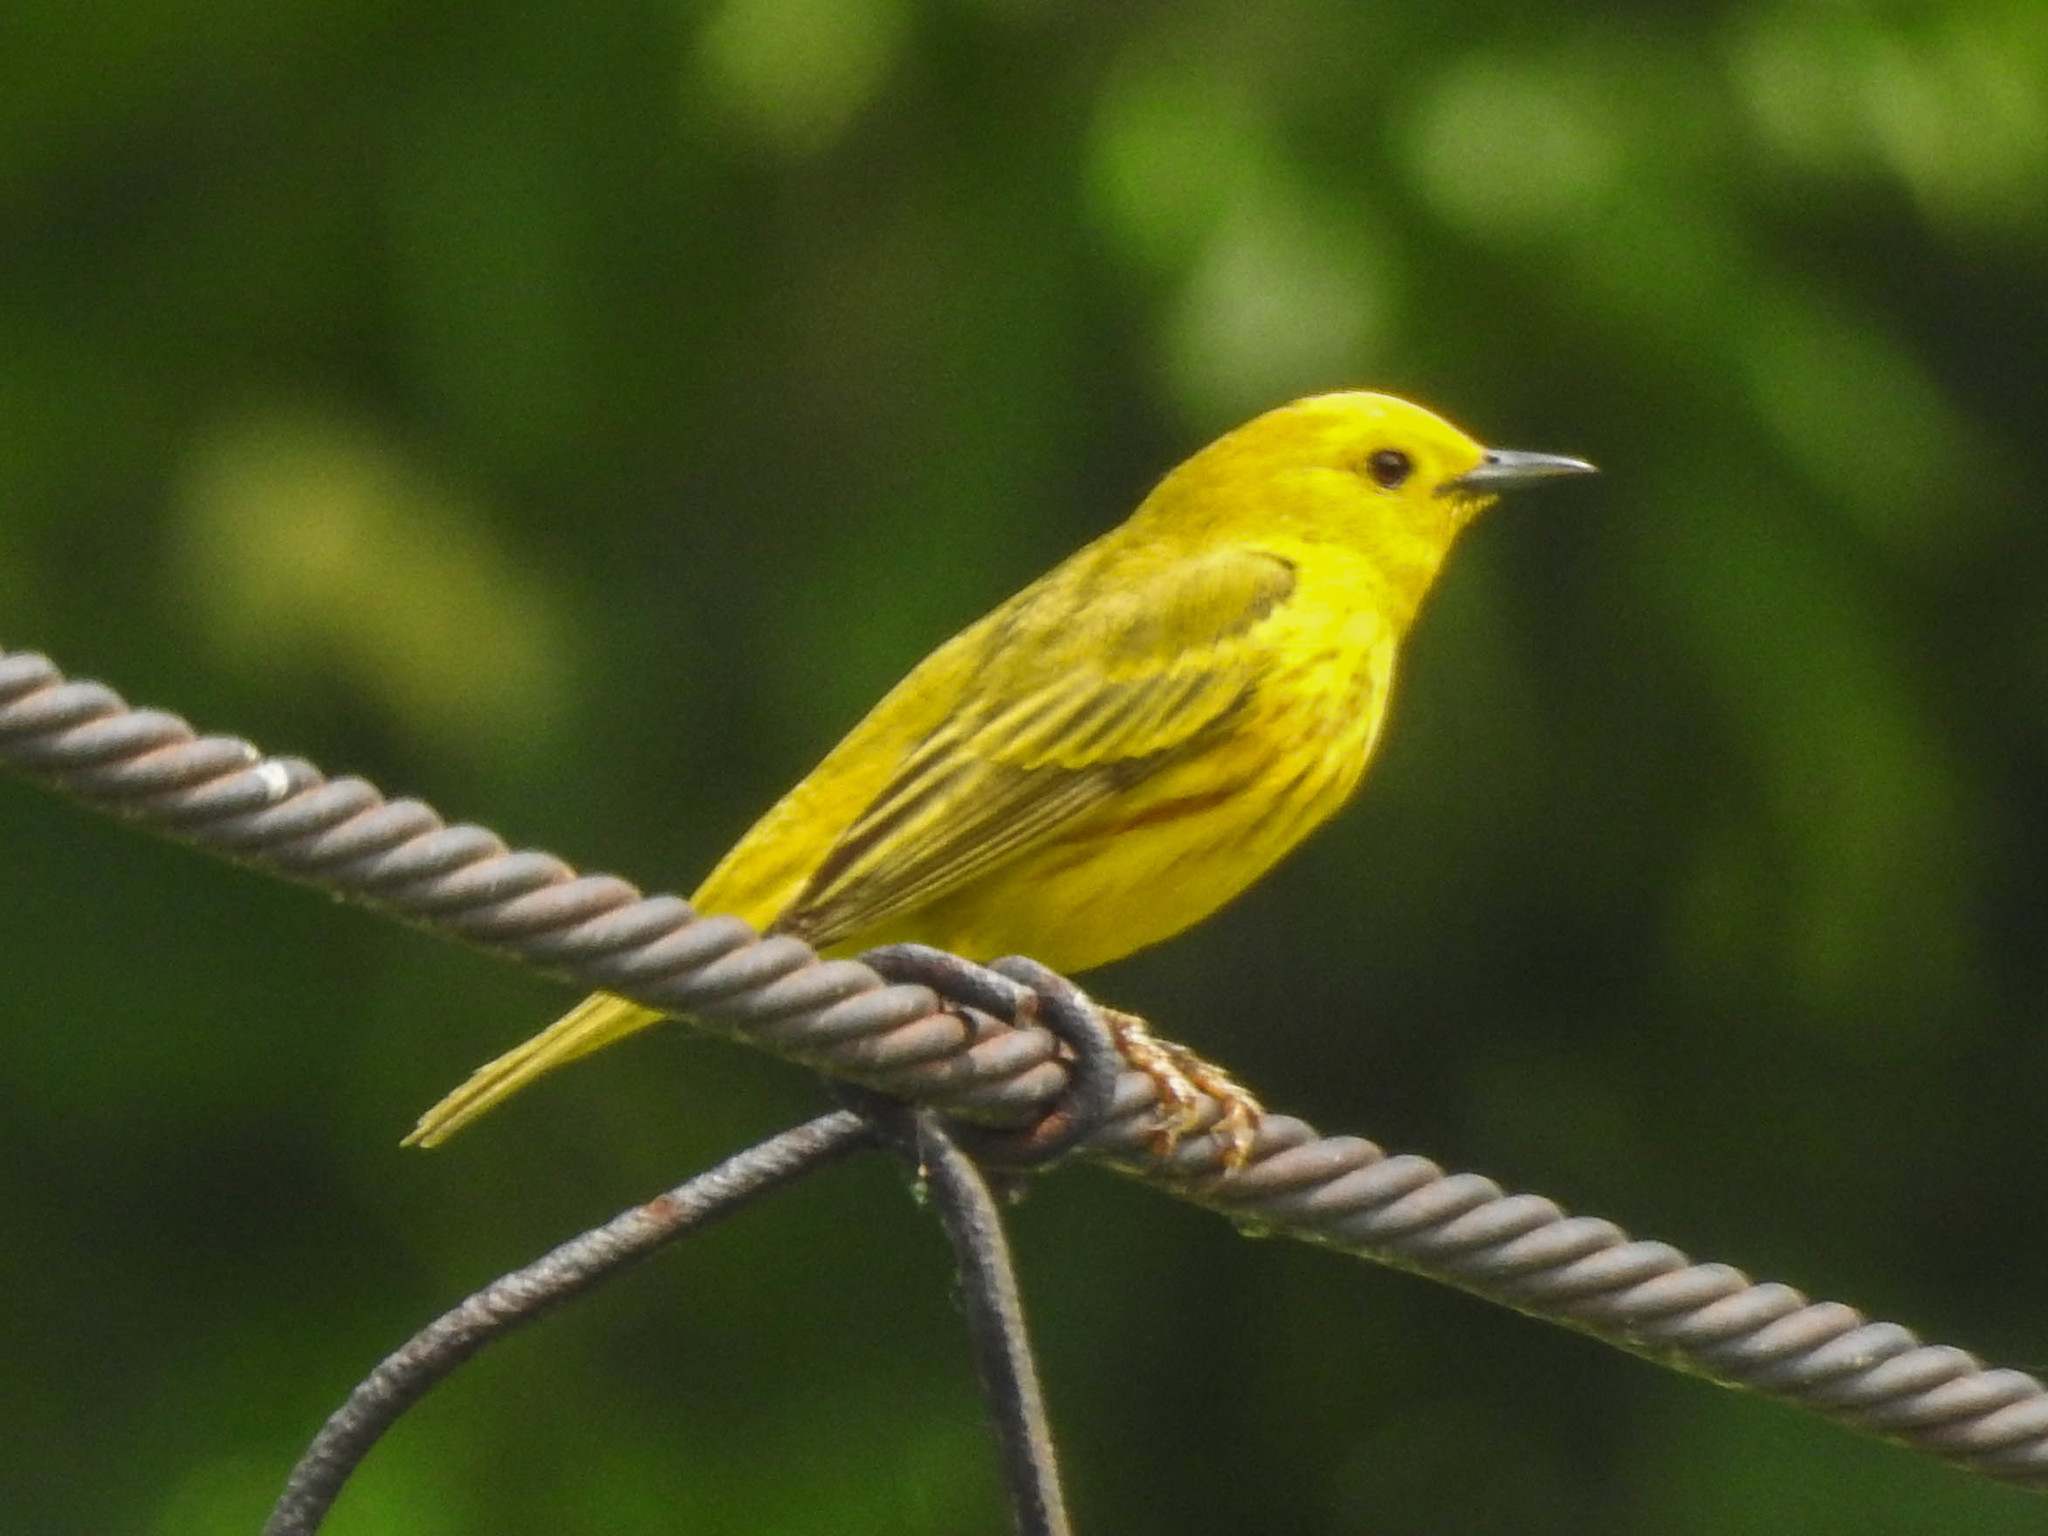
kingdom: Animalia
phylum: Chordata
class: Aves
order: Passeriformes
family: Parulidae
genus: Setophaga
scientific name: Setophaga petechia
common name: Yellow warbler
